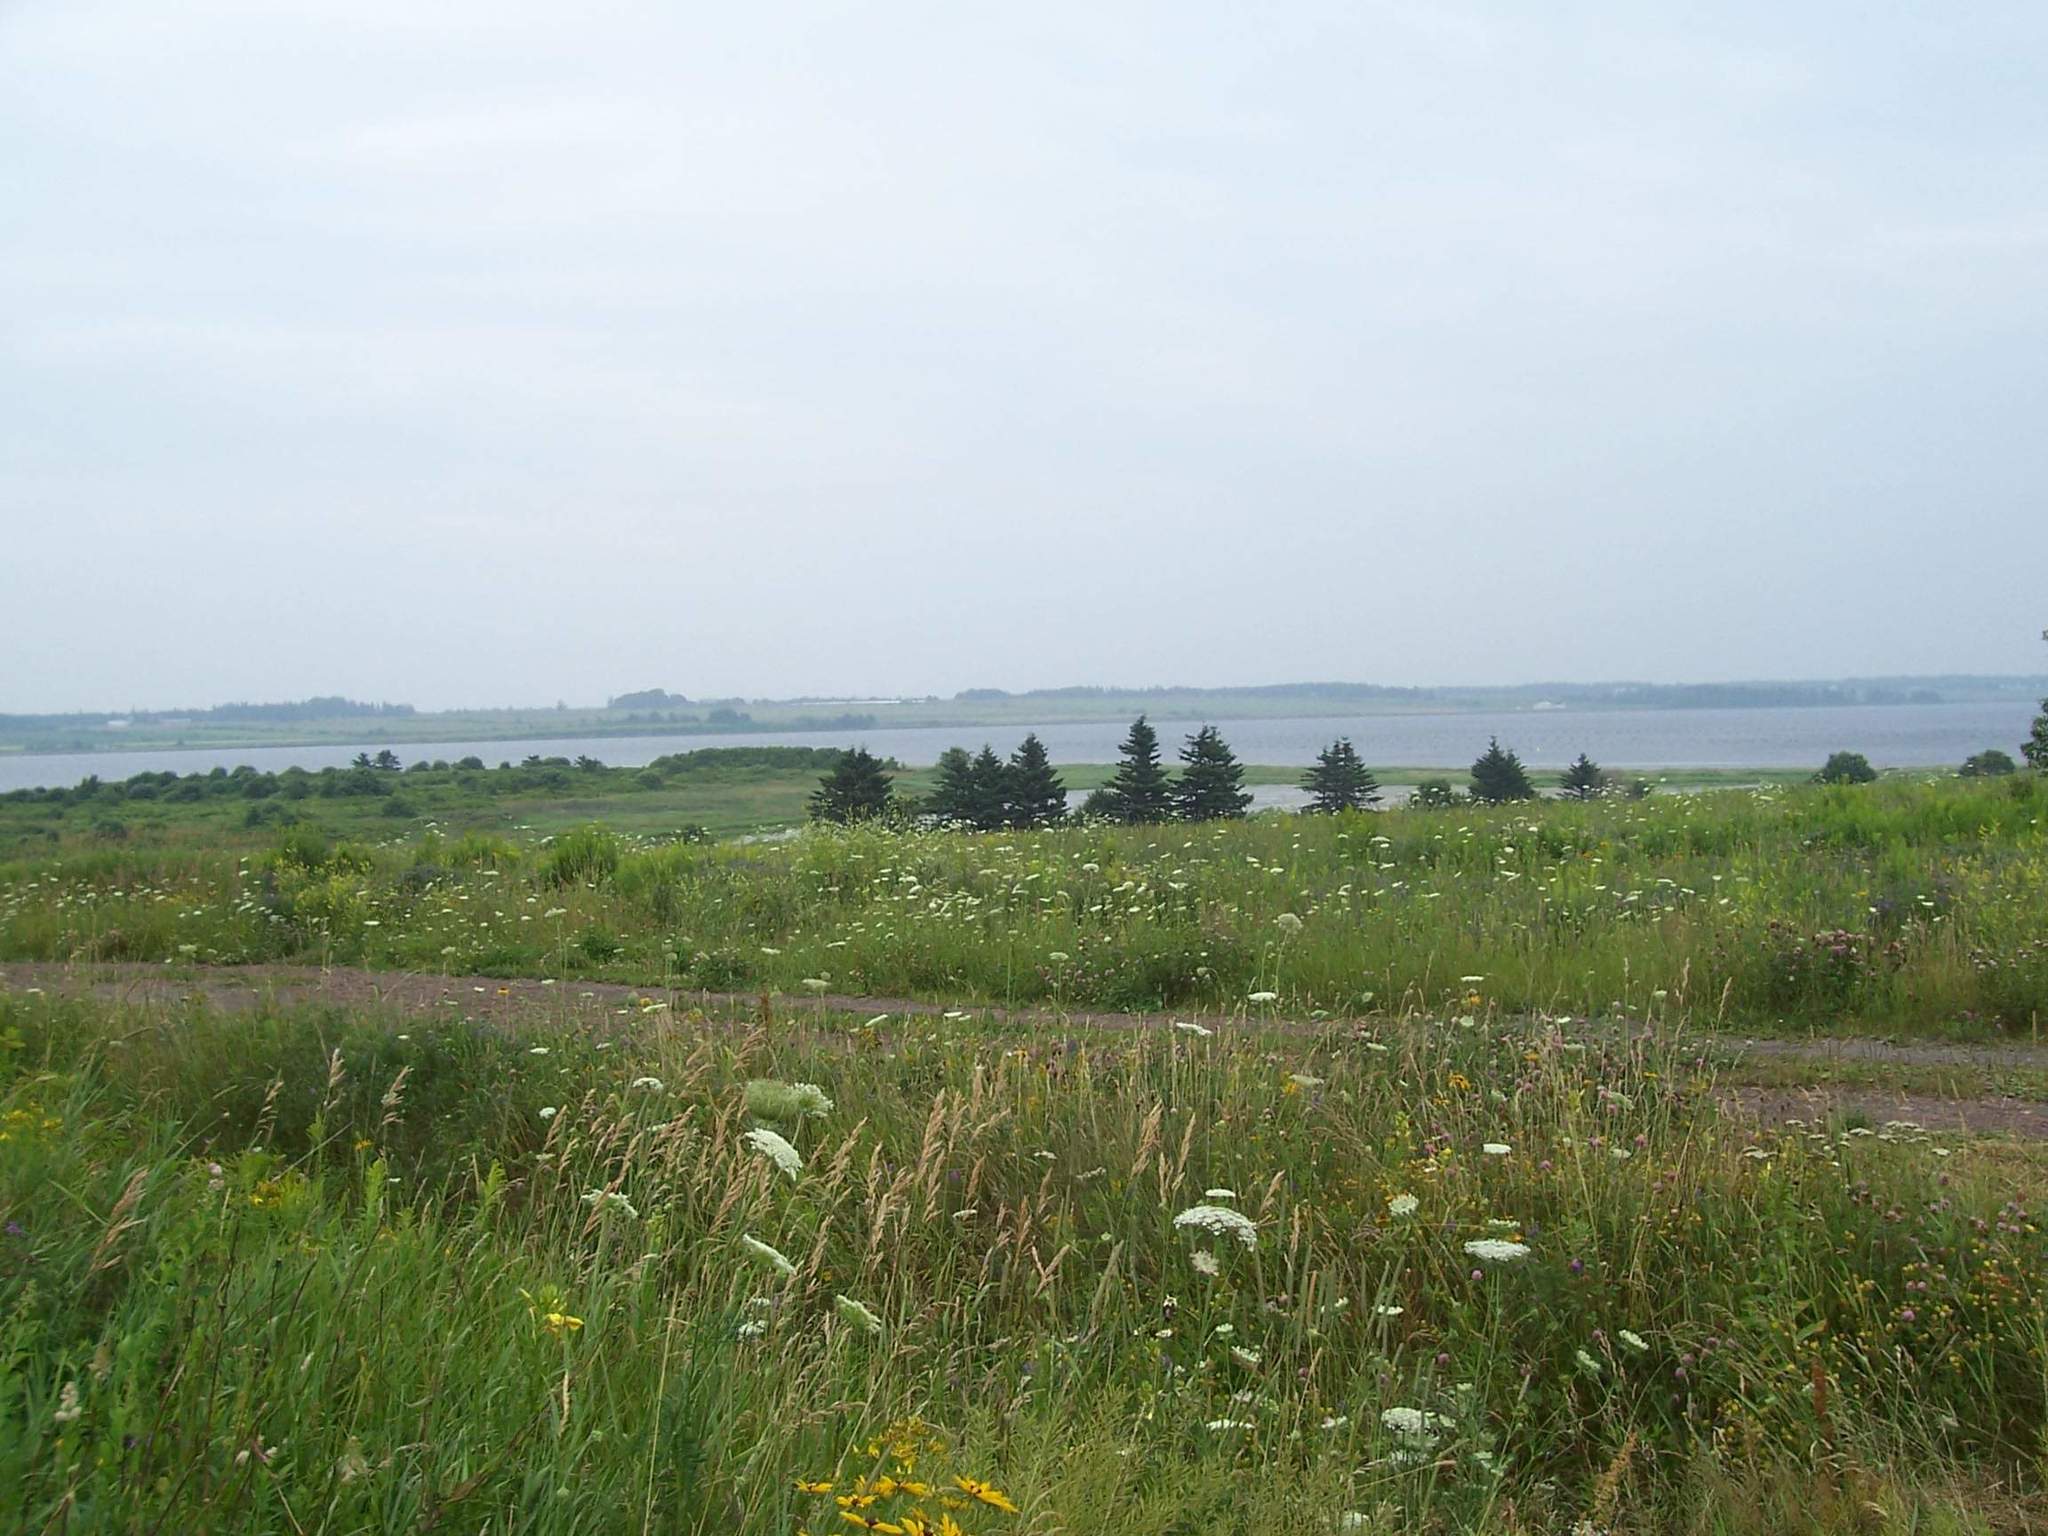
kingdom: Plantae
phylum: Tracheophyta
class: Magnoliopsida
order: Apiales
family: Apiaceae
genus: Daucus
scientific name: Daucus carota
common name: Wild carrot
